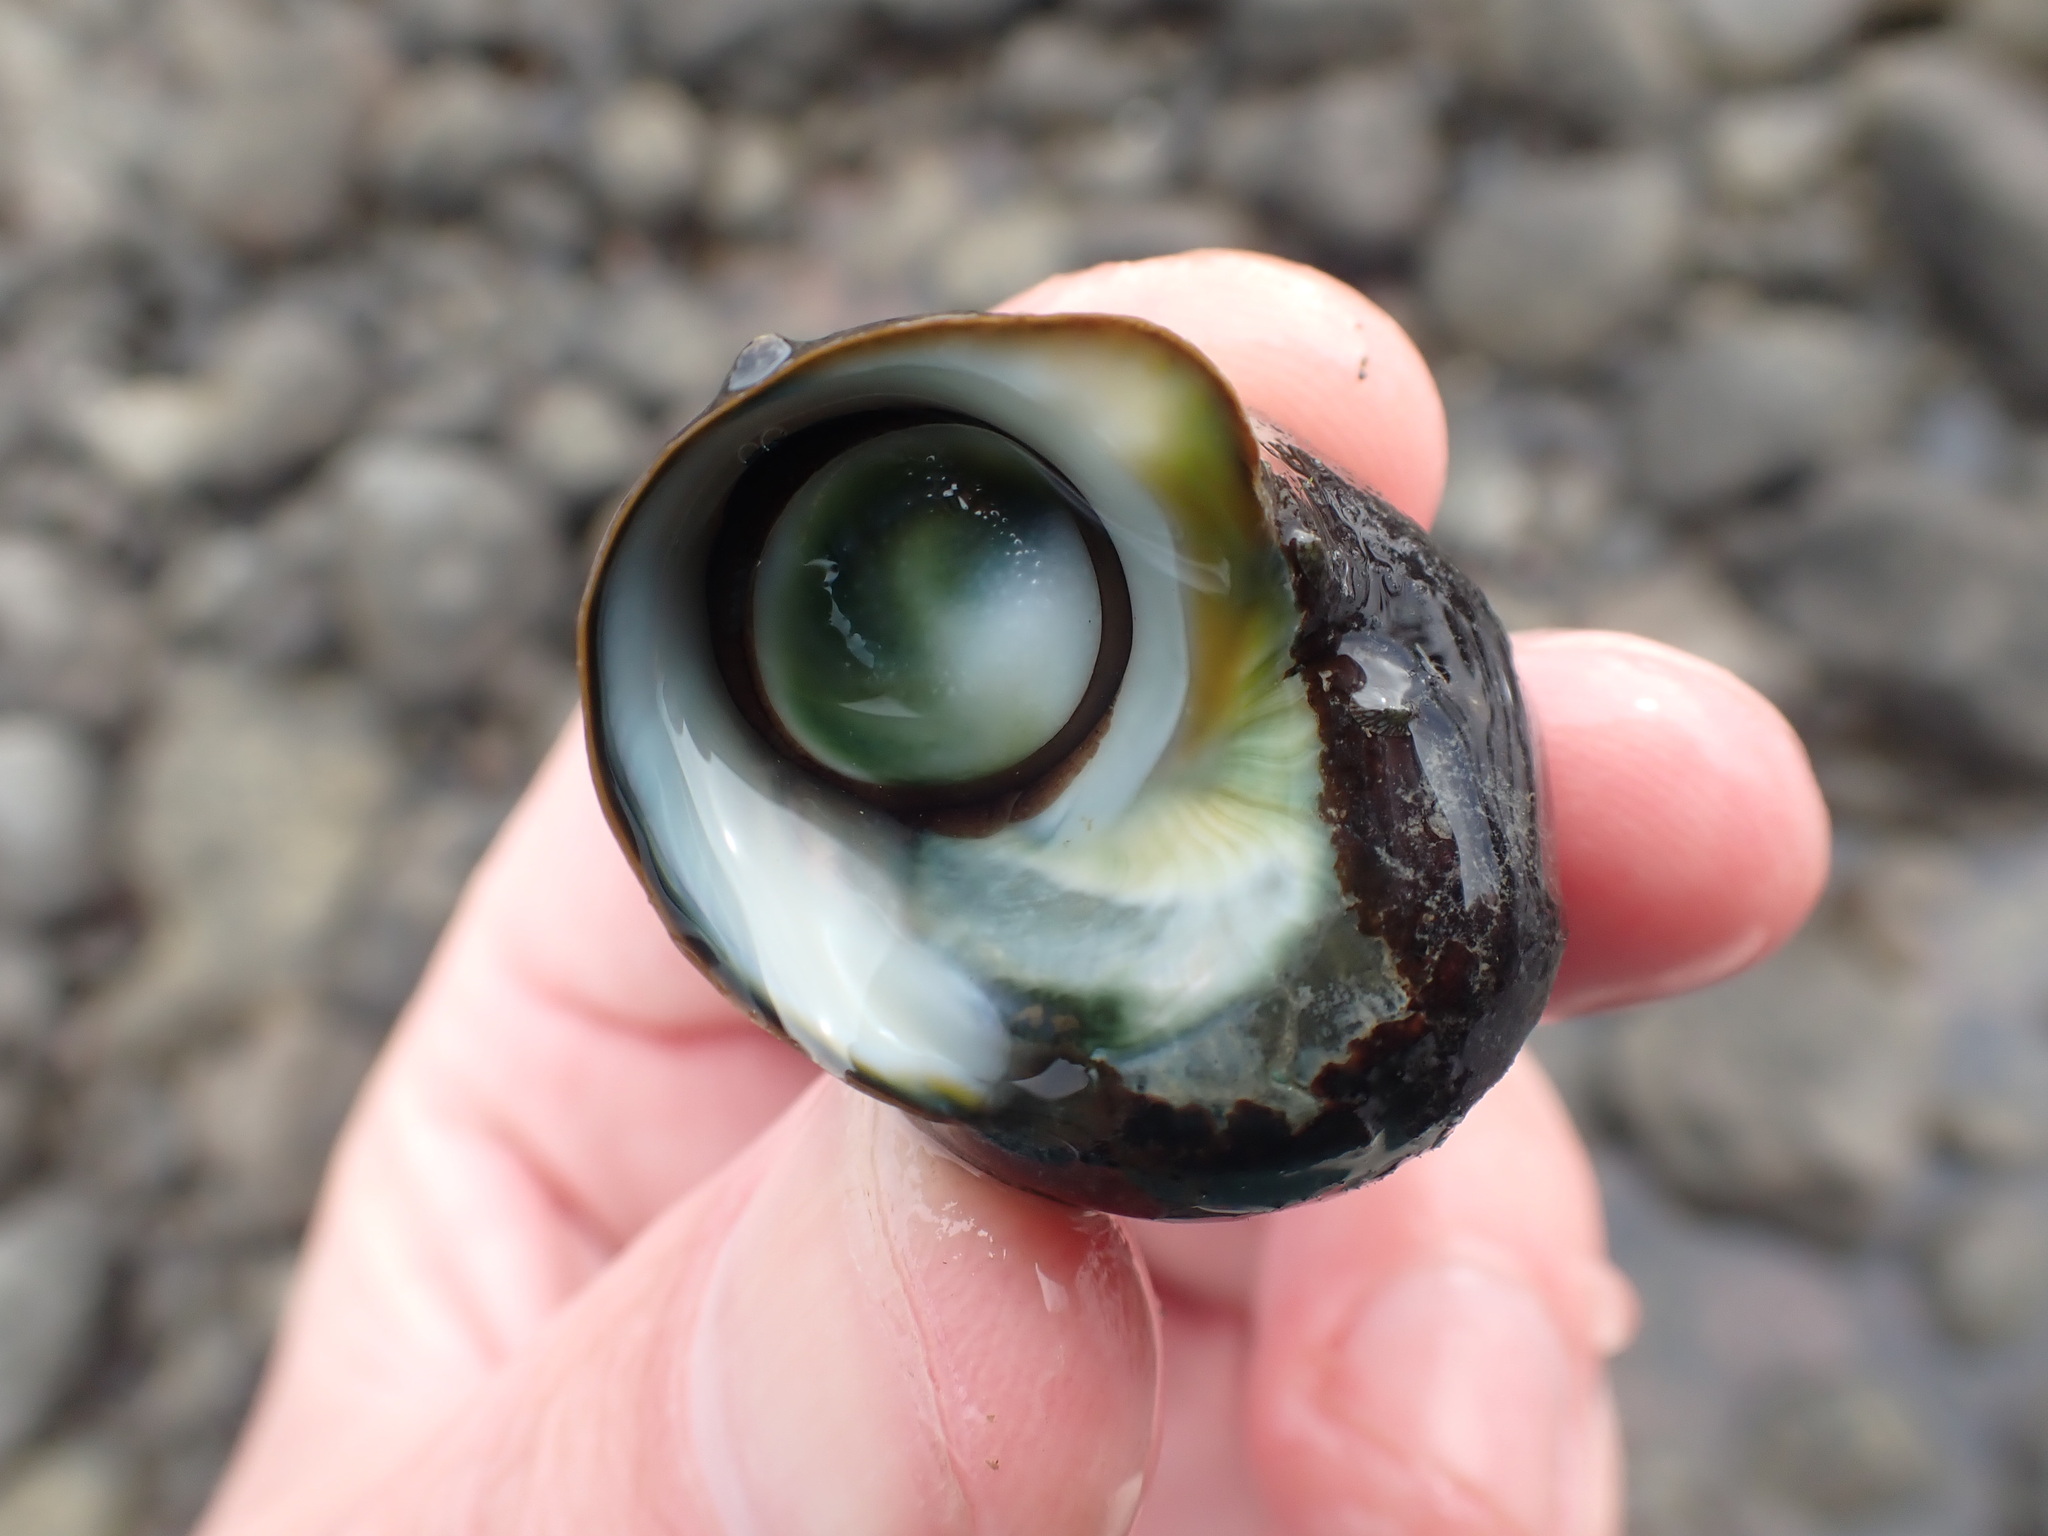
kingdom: Animalia
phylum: Mollusca
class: Gastropoda
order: Trochida
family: Turbinidae
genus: Lunella
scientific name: Lunella smaragda
